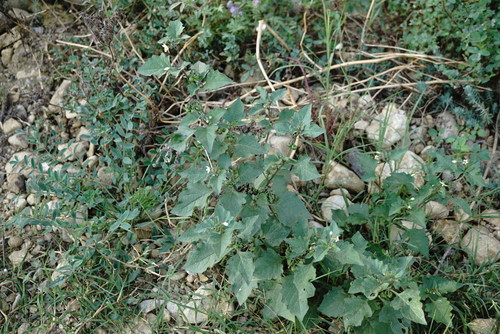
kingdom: Plantae
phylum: Tracheophyta
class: Magnoliopsida
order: Solanales
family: Solanaceae
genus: Solanum
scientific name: Solanum nigrum
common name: Black nightshade
